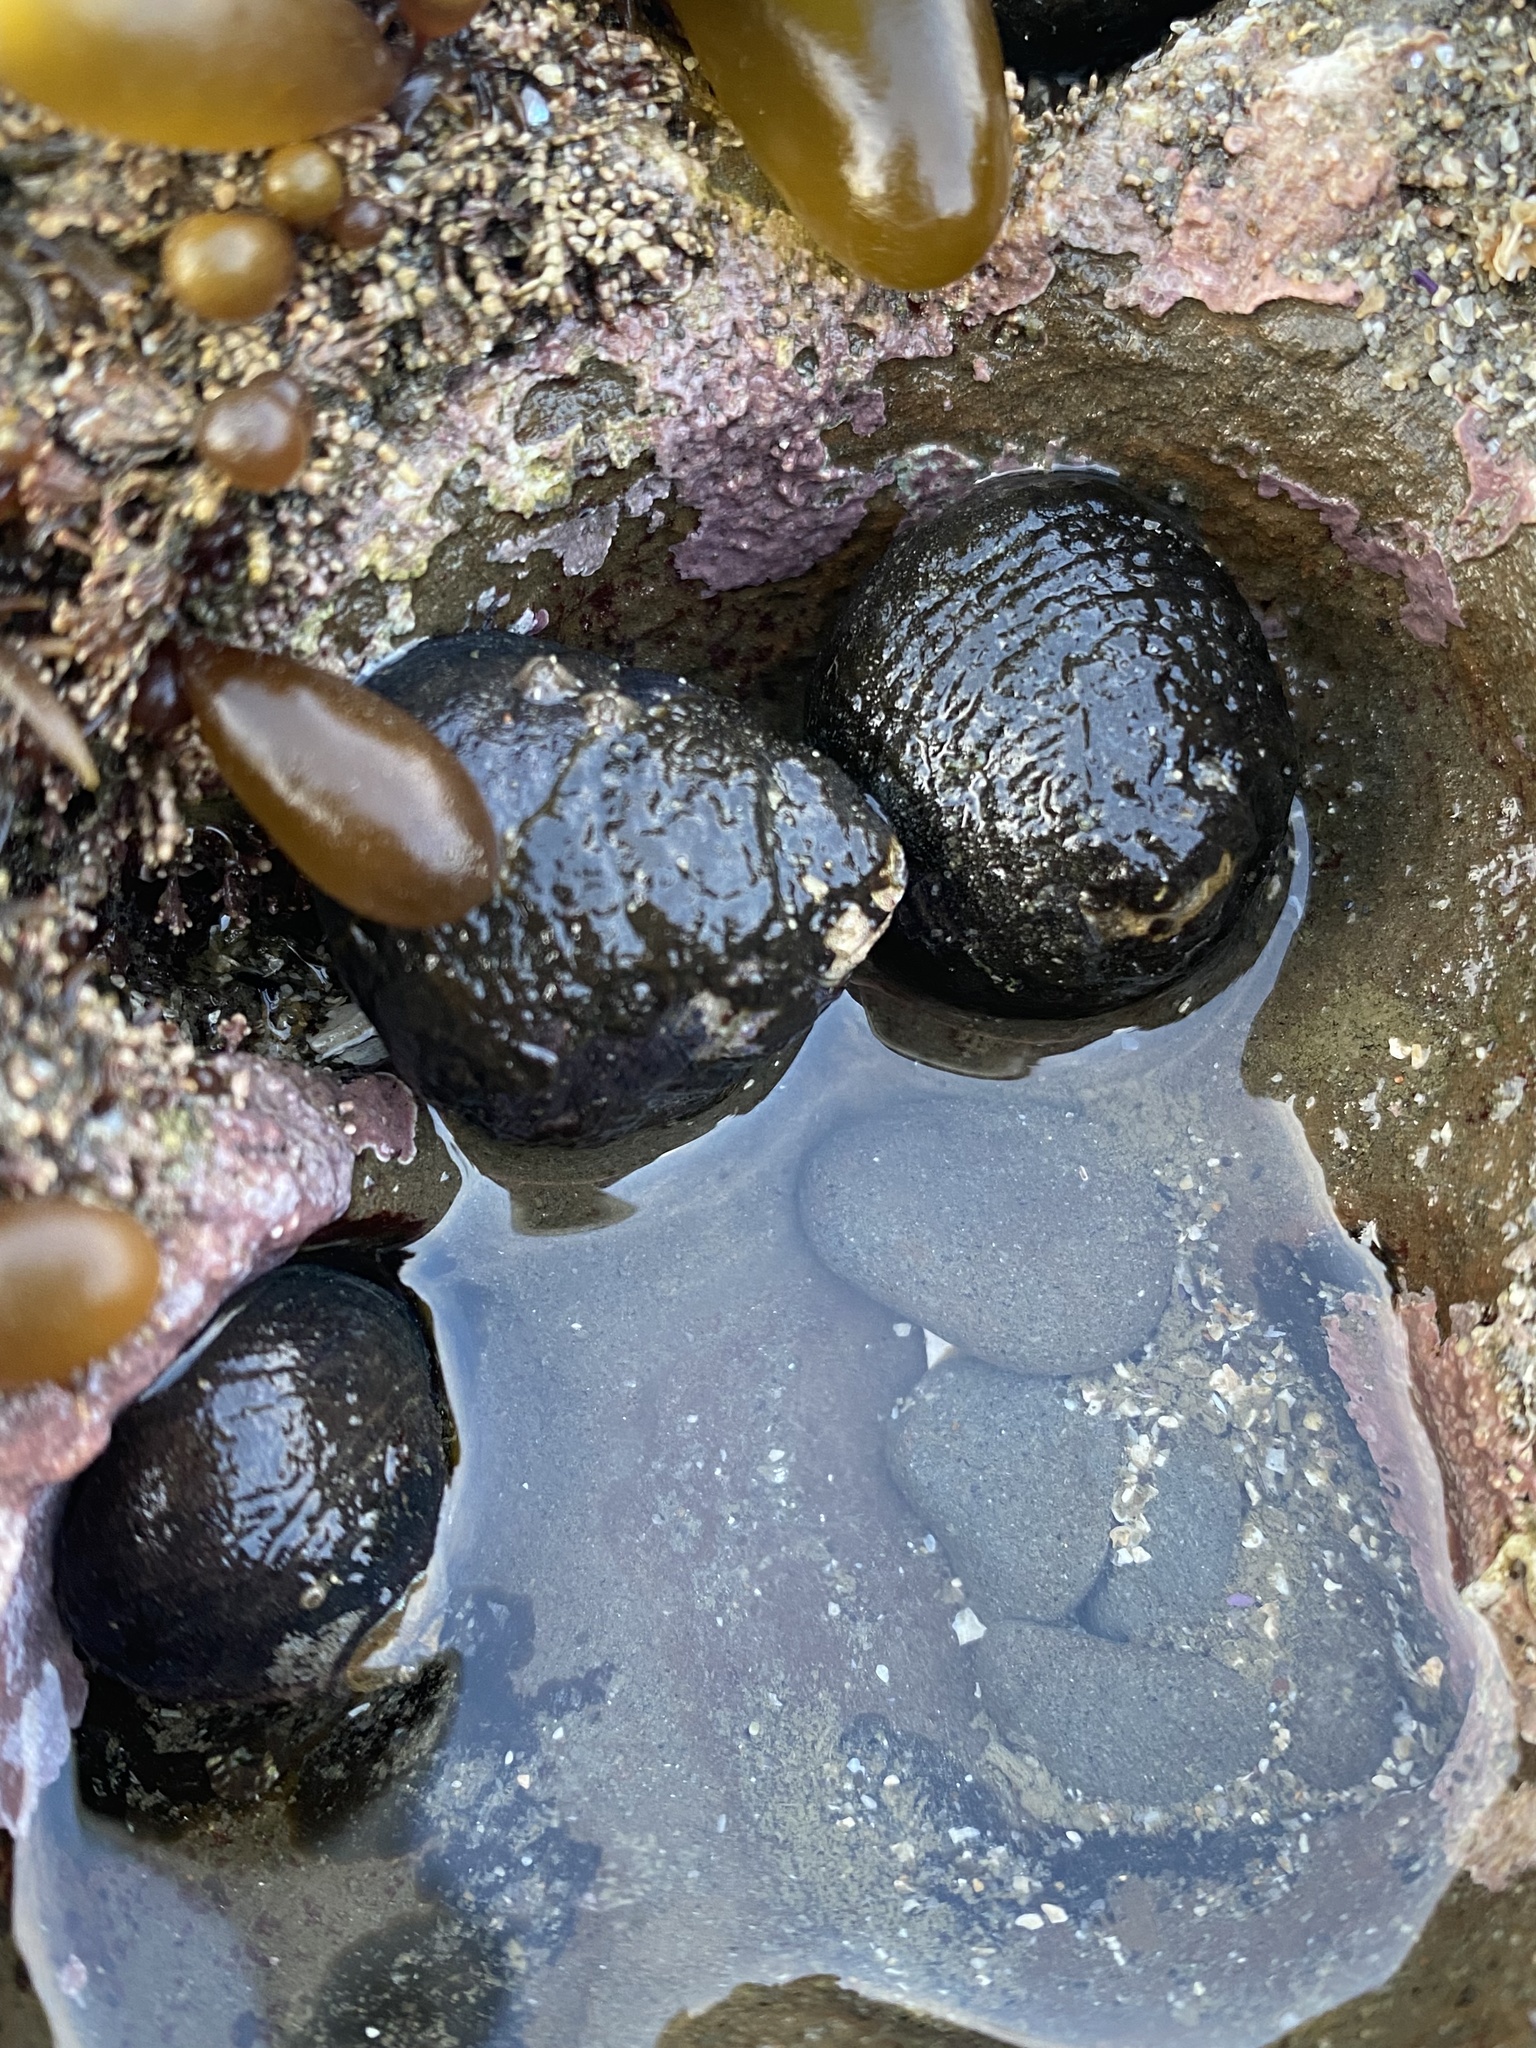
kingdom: Animalia
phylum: Mollusca
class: Gastropoda
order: Trochida
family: Tegulidae
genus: Tegula
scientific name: Tegula funebralis
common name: Black tegula
